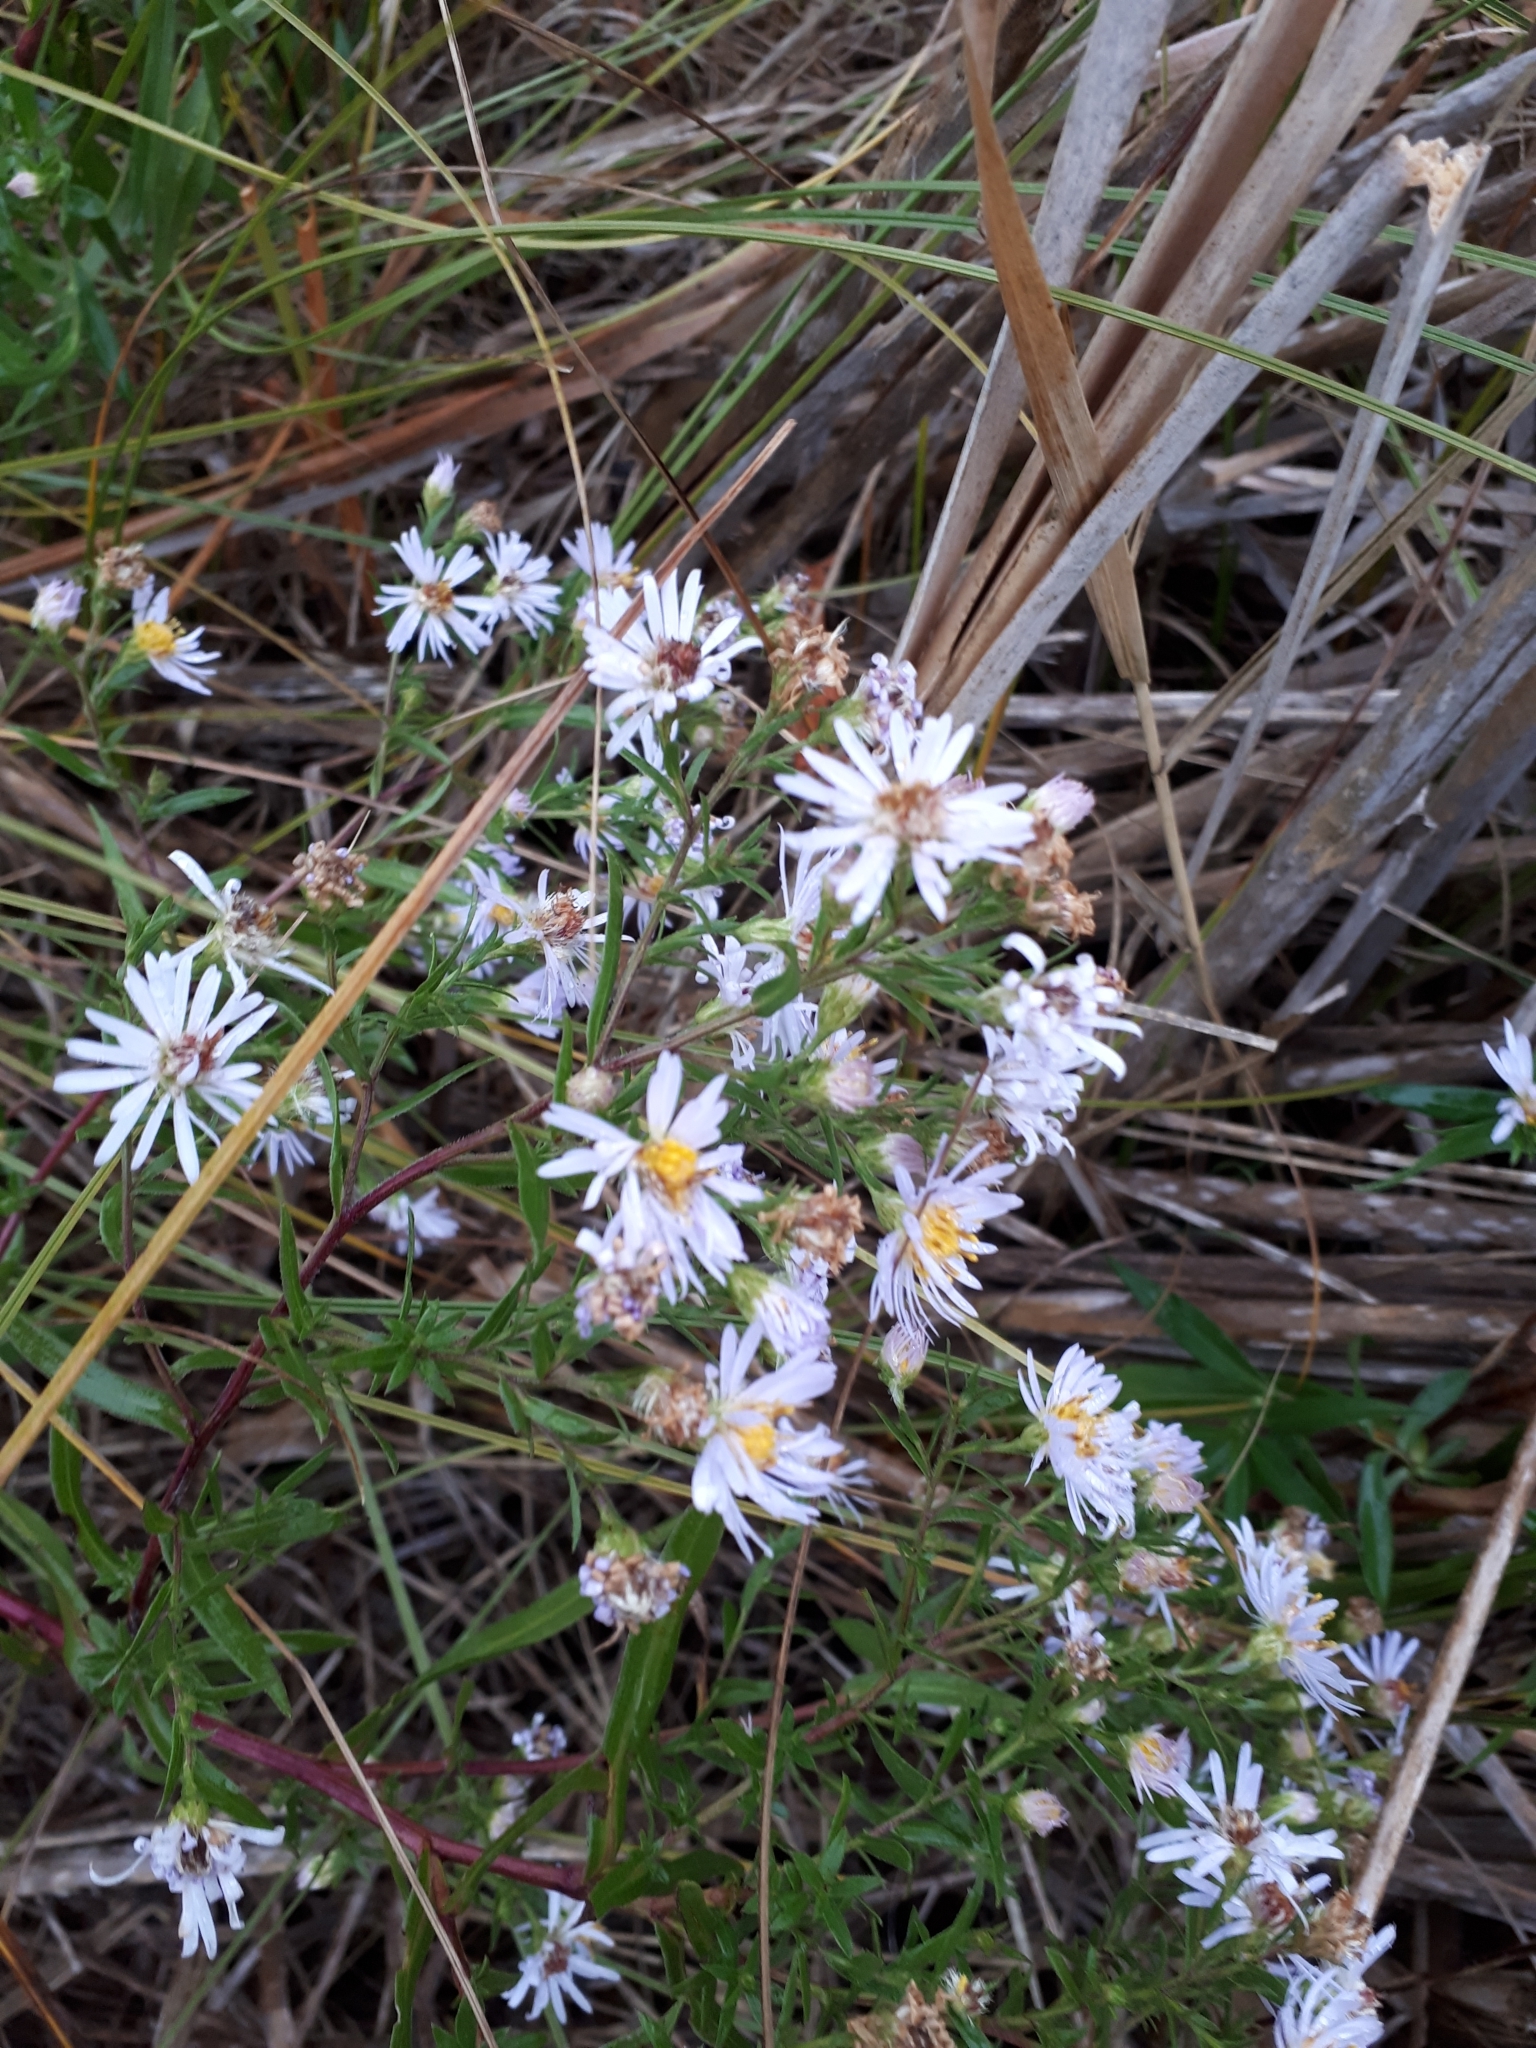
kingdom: Plantae
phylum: Tracheophyta
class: Magnoliopsida
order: Asterales
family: Asteraceae
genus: Symphyotrichum
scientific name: Symphyotrichum lanceolatum
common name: Panicled aster
